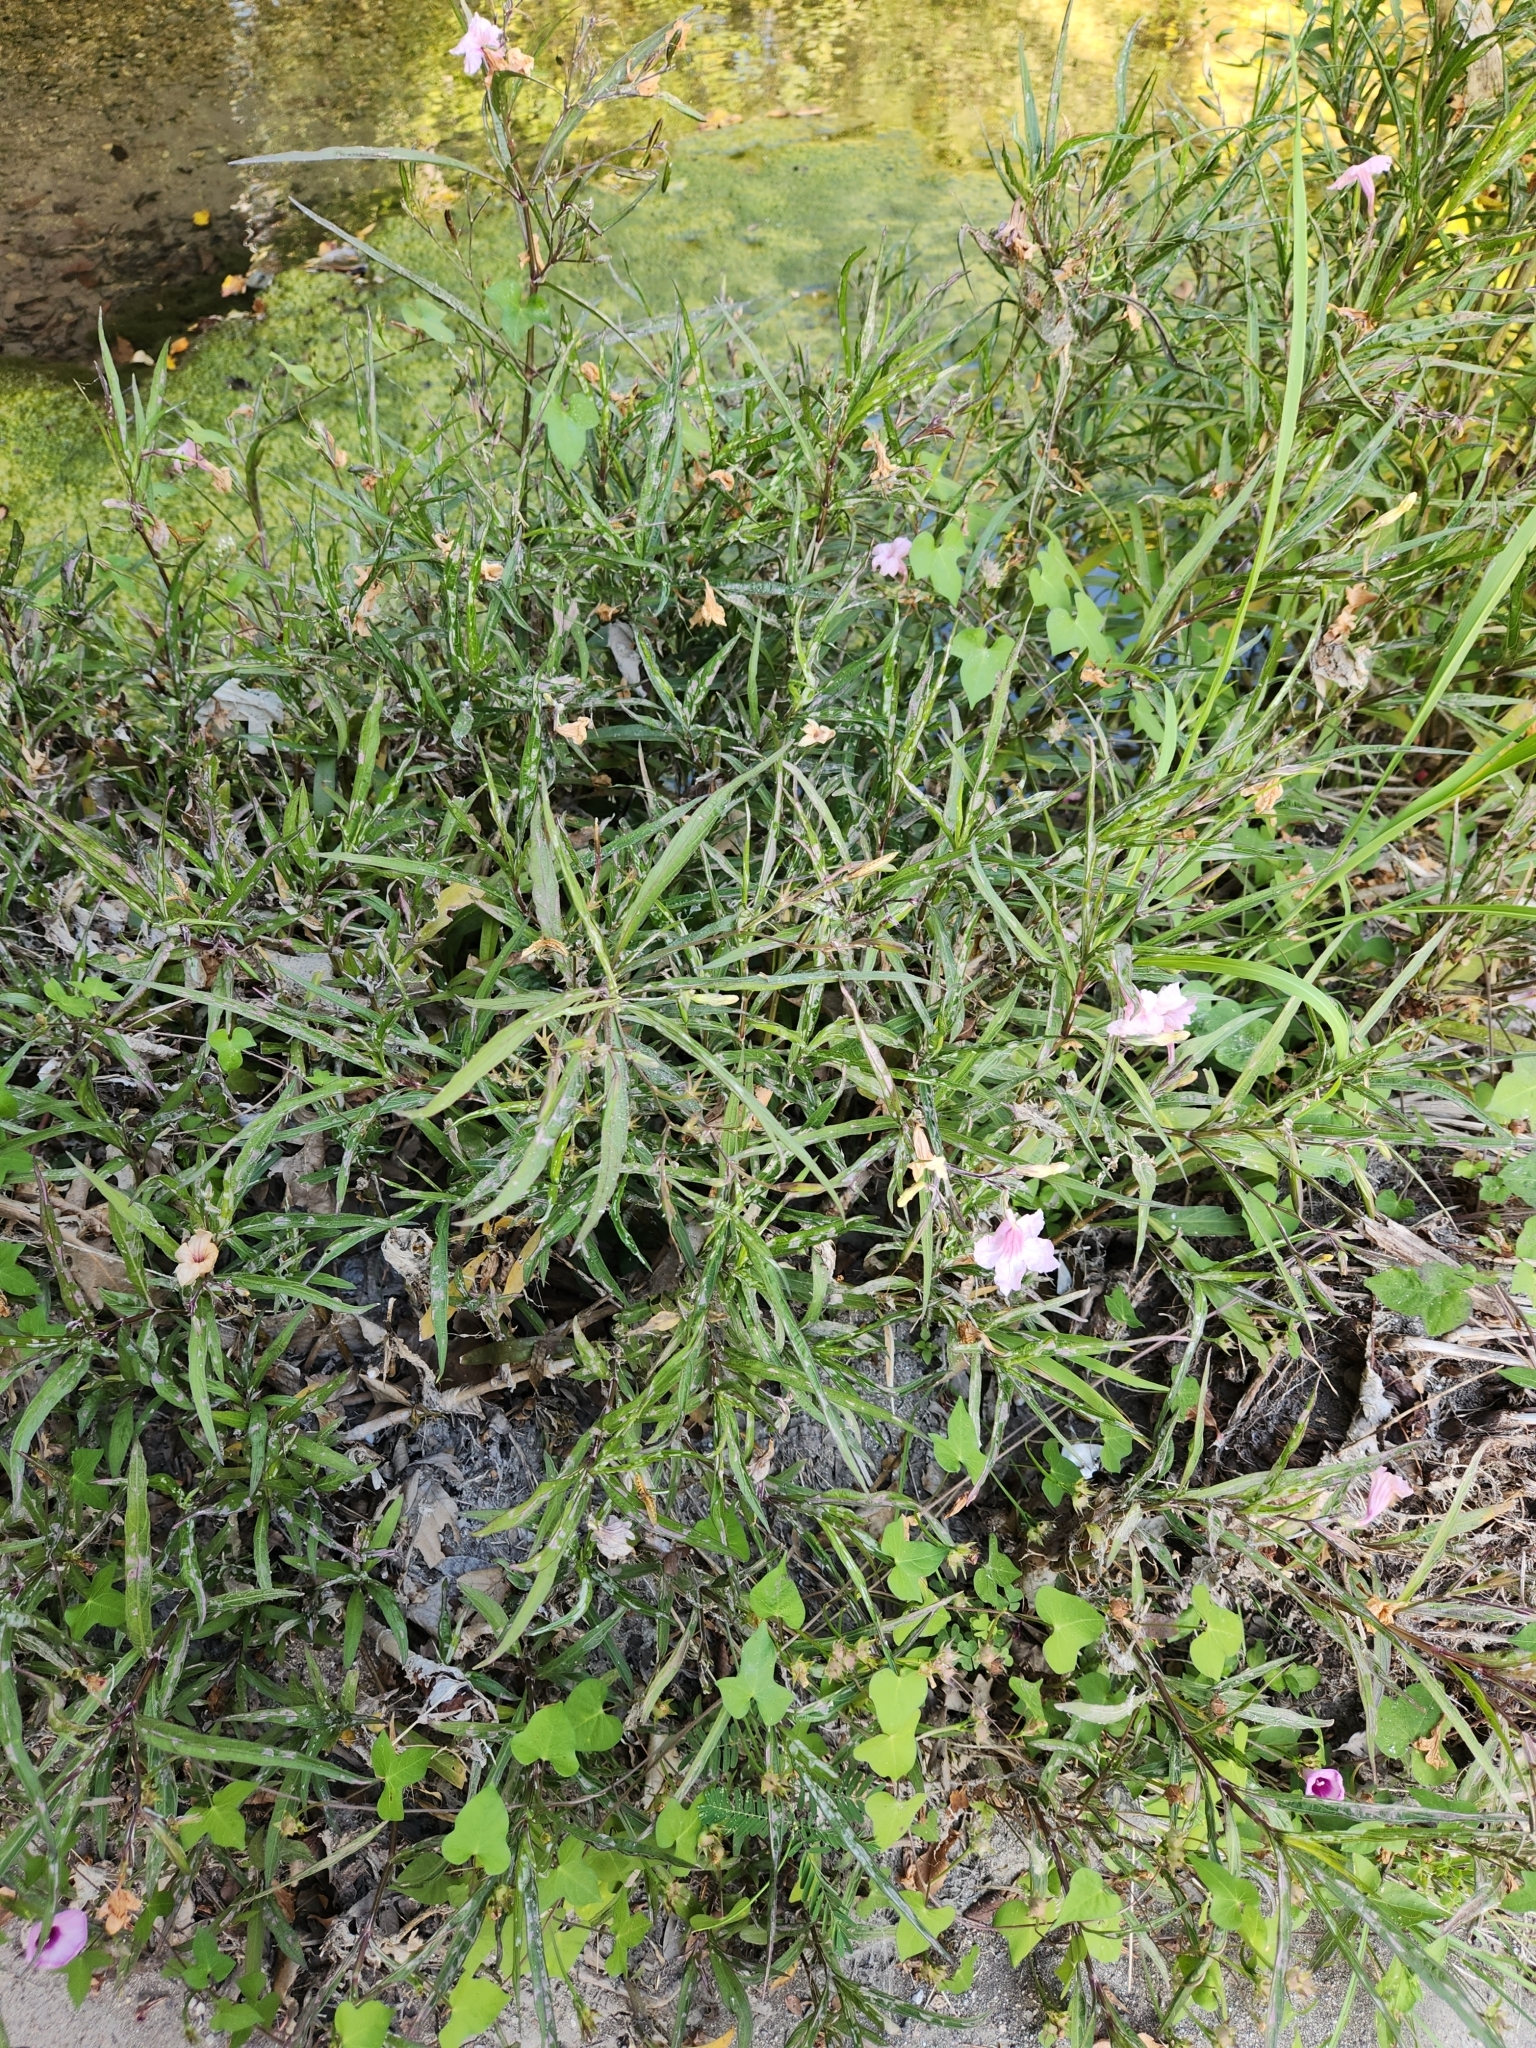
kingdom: Plantae
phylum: Tracheophyta
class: Magnoliopsida
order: Lamiales
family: Acanthaceae
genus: Ruellia
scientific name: Ruellia simplex
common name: Softseed wild petunia
